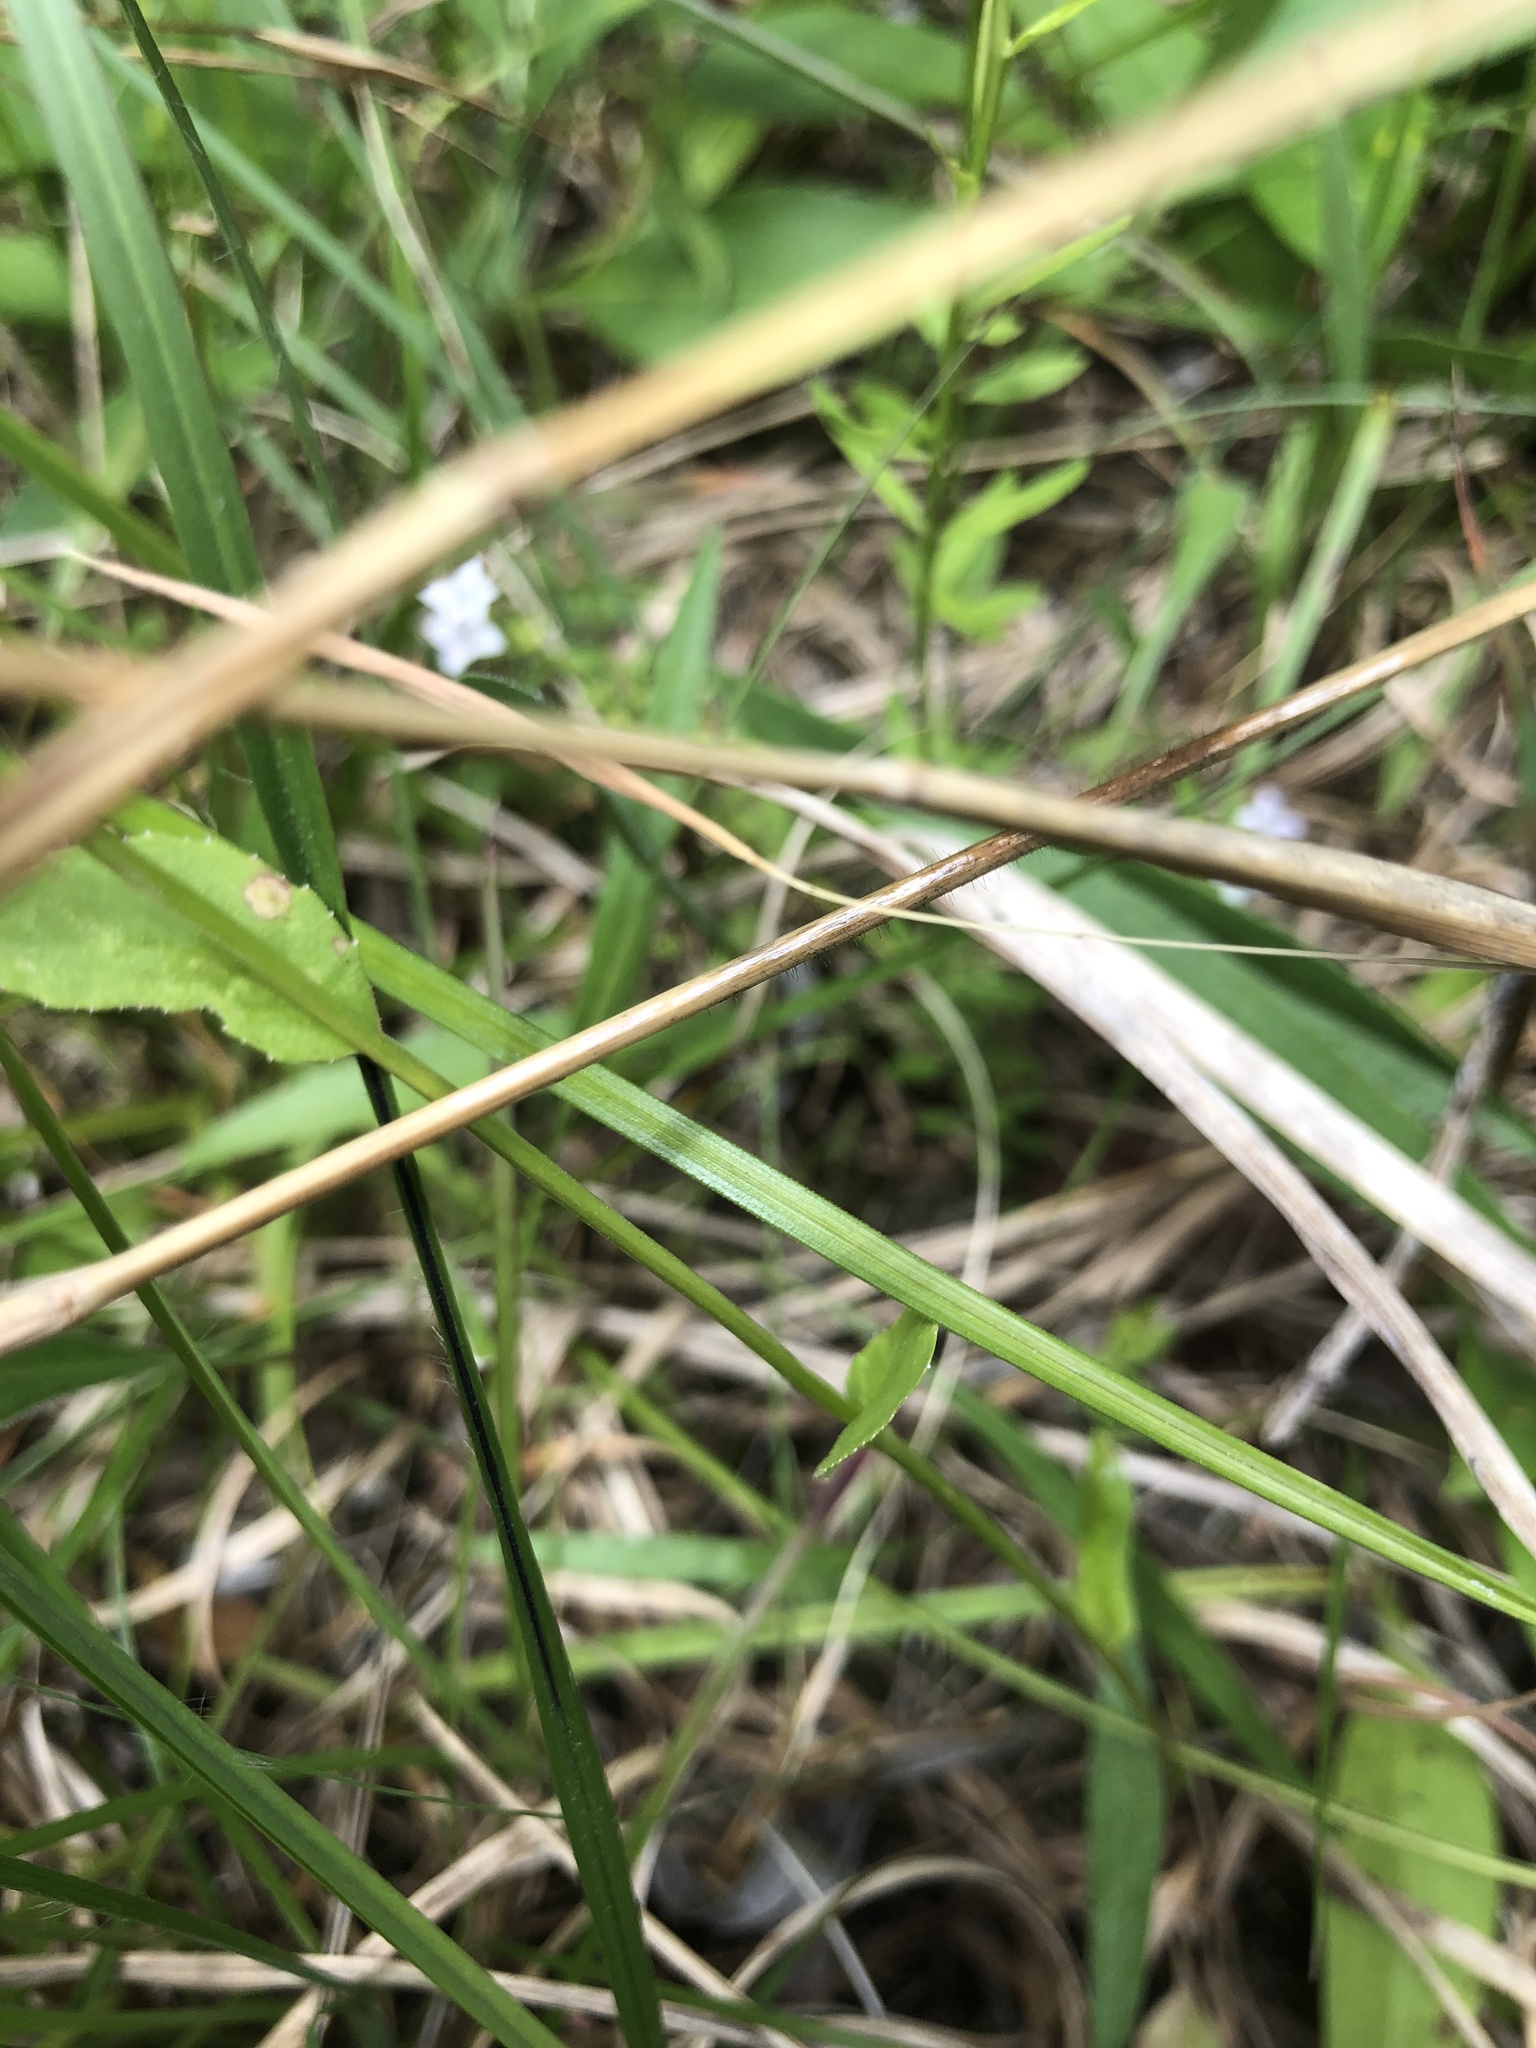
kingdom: Plantae
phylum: Tracheophyta
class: Magnoliopsida
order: Asterales
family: Campanulaceae
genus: Lobelia
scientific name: Lobelia appendiculata
